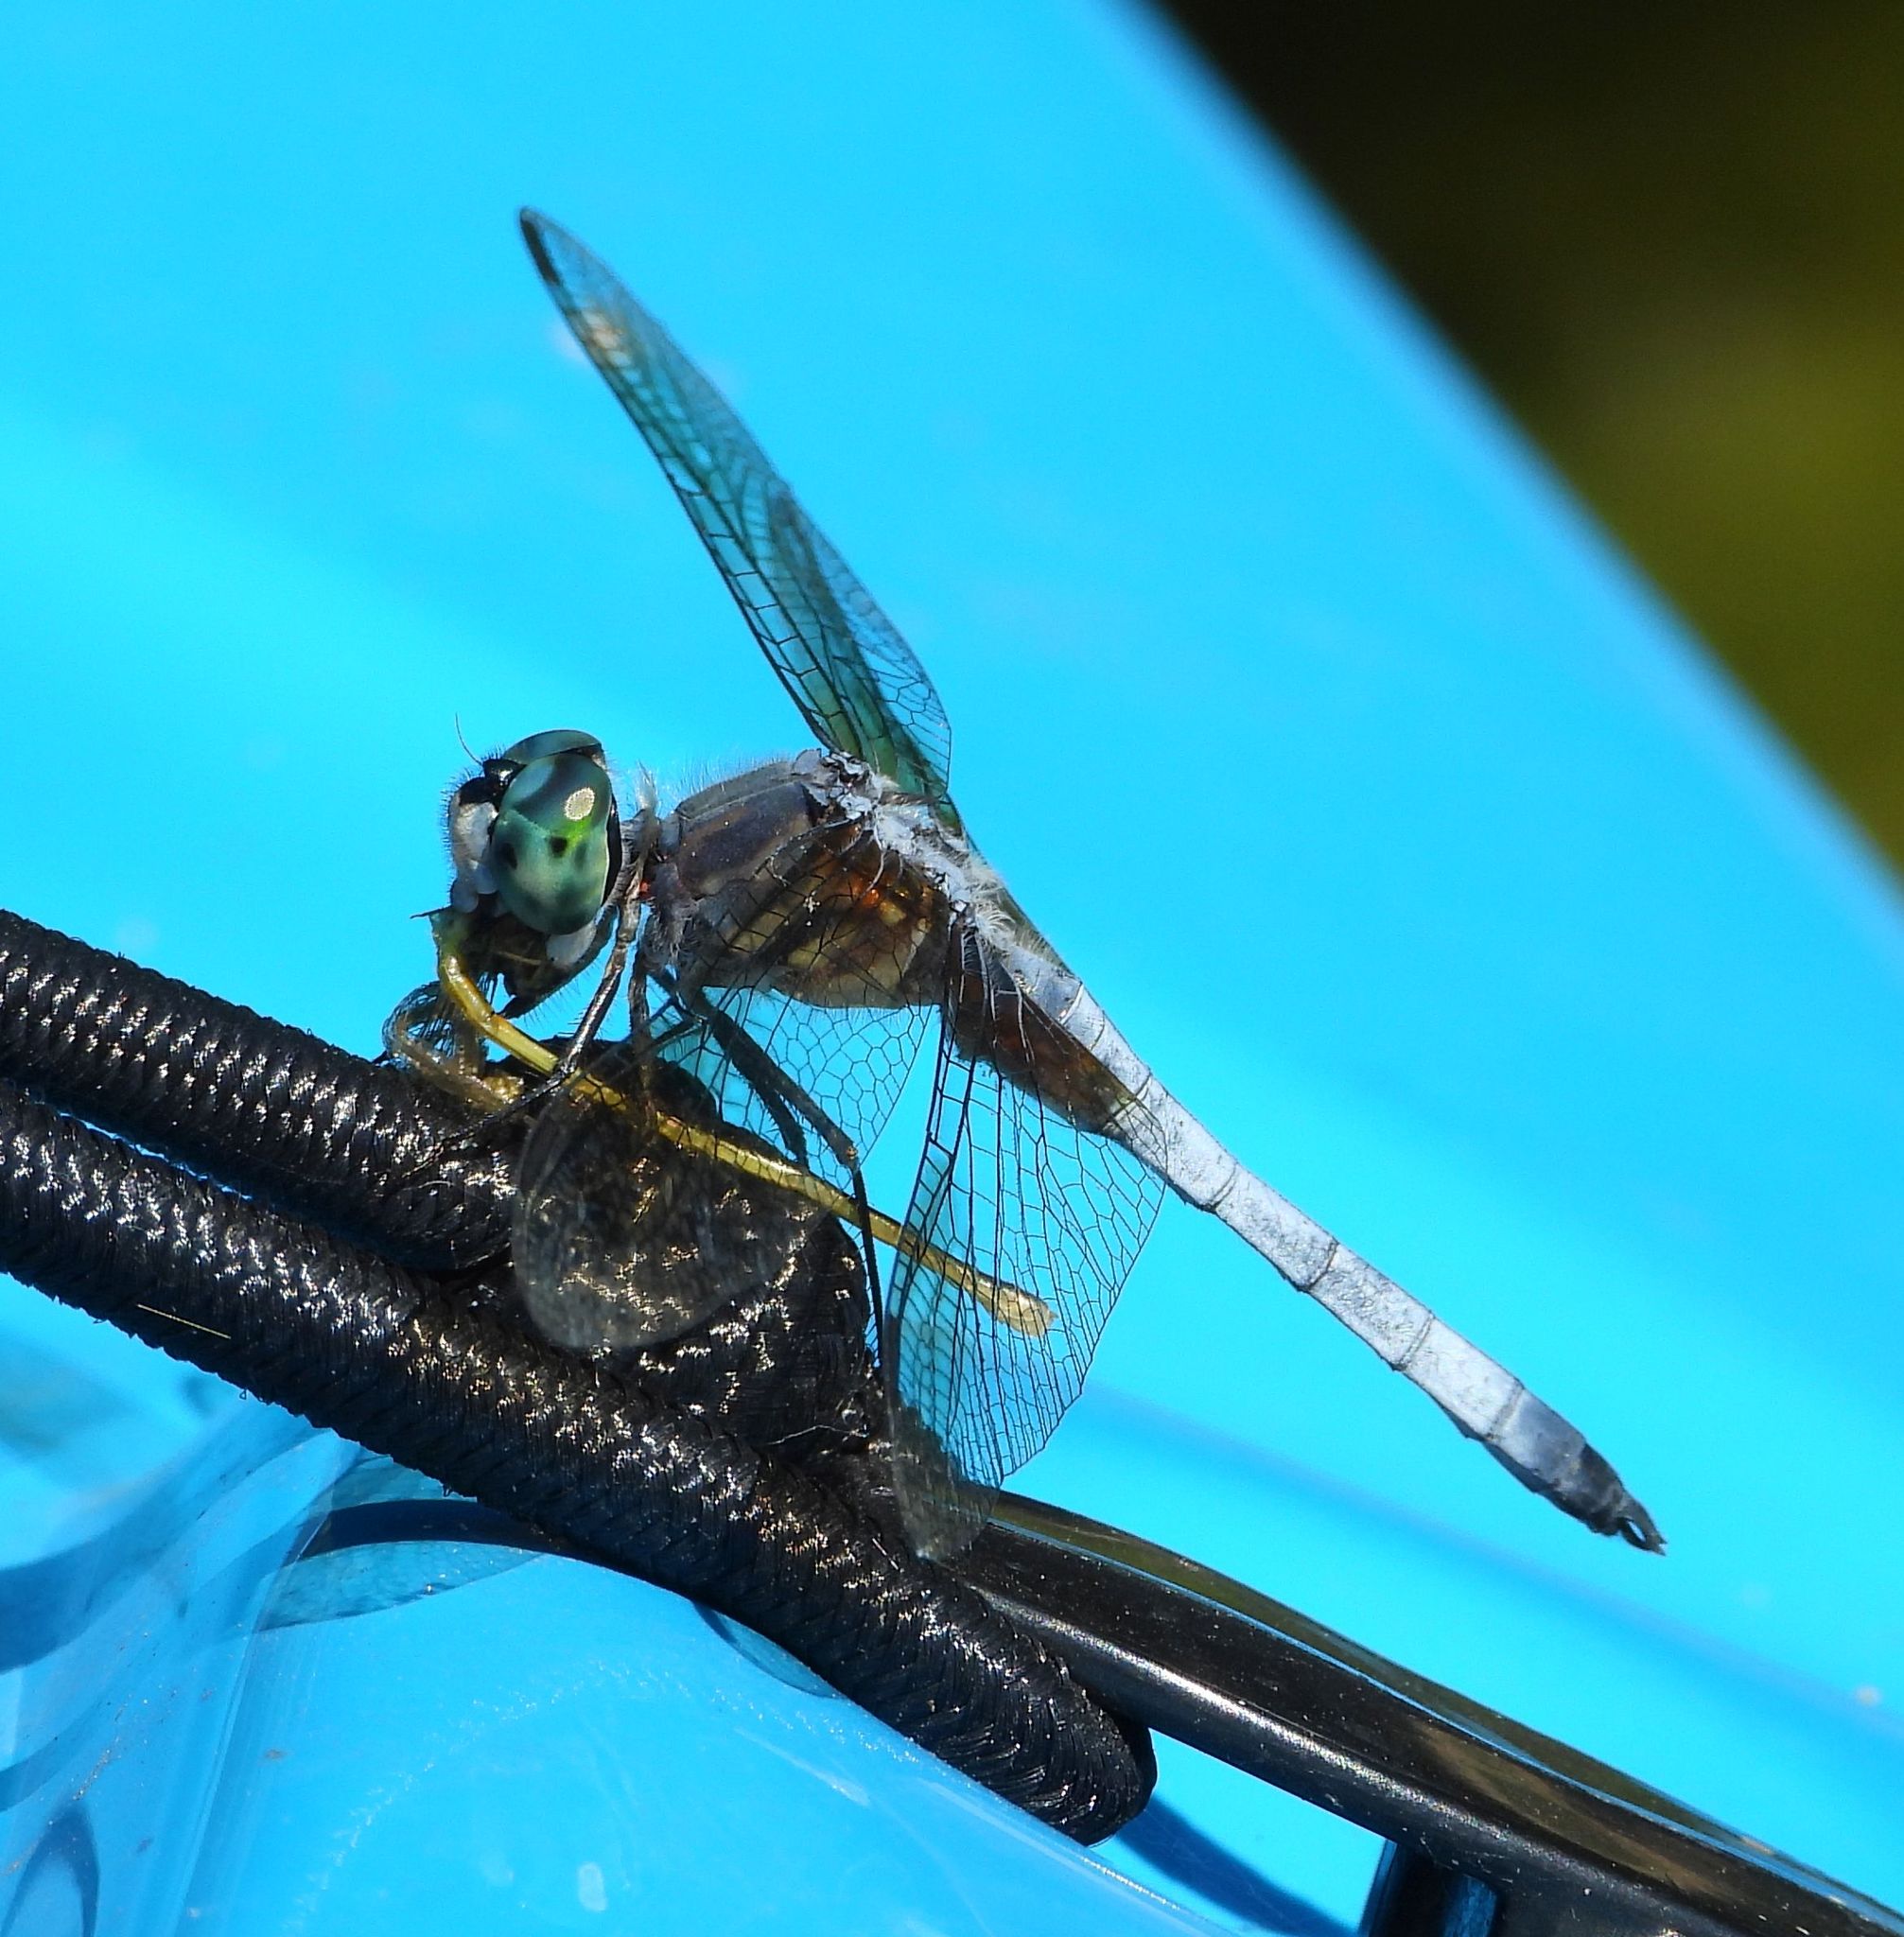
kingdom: Animalia
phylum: Arthropoda
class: Insecta
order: Odonata
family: Libellulidae
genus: Pachydiplax
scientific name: Pachydiplax longipennis
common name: Blue dasher
